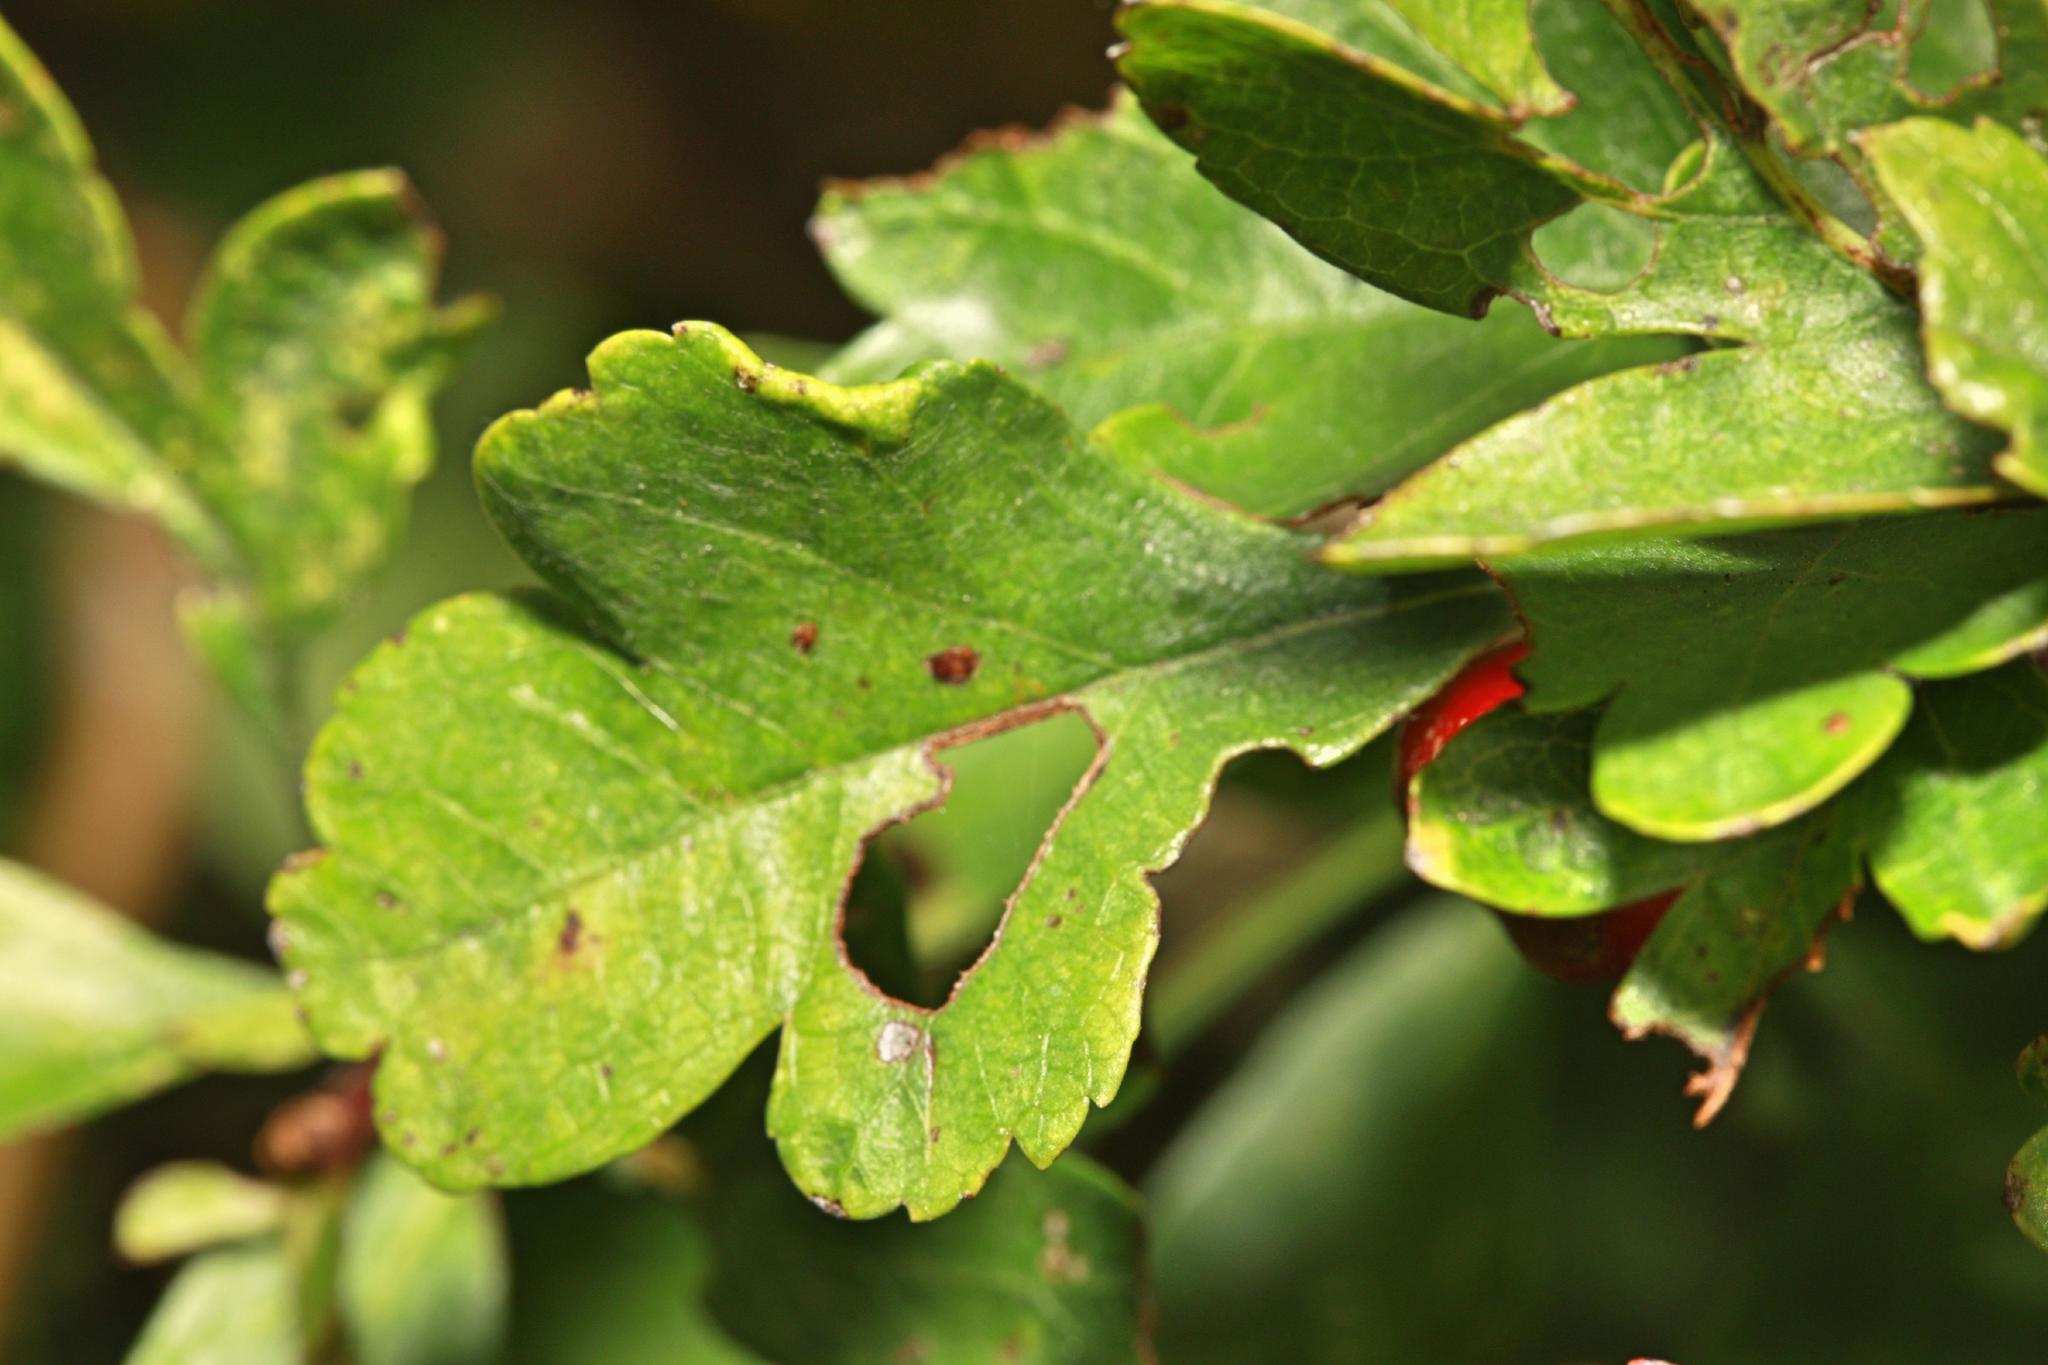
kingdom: Animalia
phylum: Arthropoda
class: Arachnida
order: Trombidiformes
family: Eriophyidae
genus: Phyllocoptes
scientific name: Phyllocoptes goniothorax
